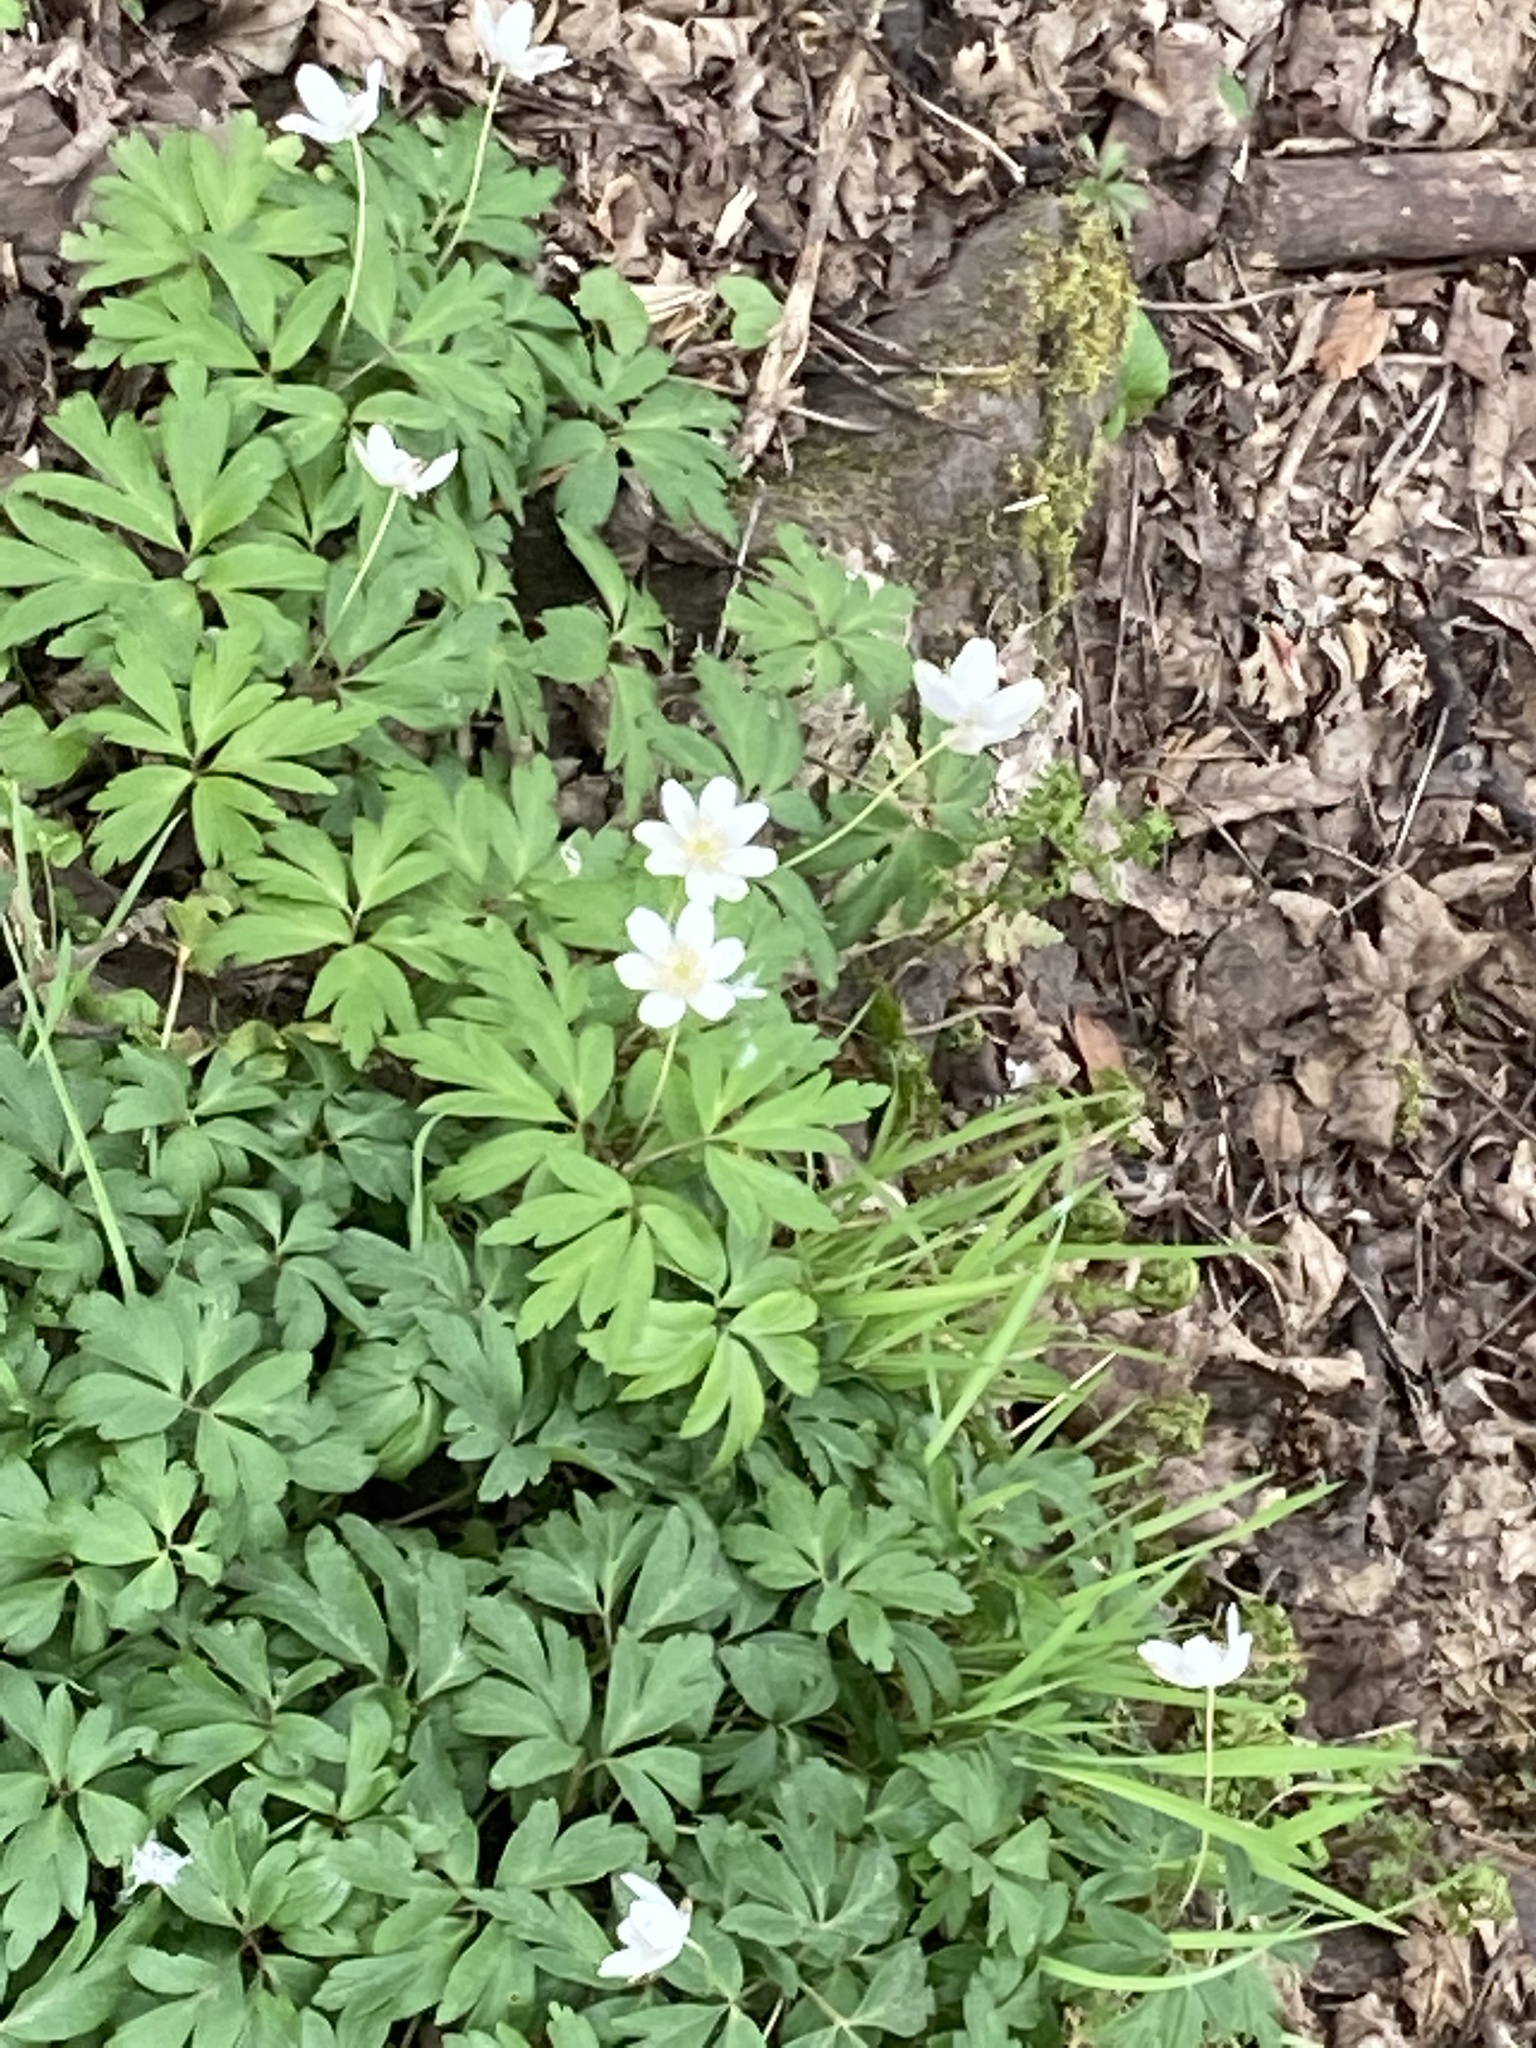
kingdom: Plantae
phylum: Tracheophyta
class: Magnoliopsida
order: Ranunculales
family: Ranunculaceae
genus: Anemone
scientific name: Anemone nemorosa
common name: Wood anemone
